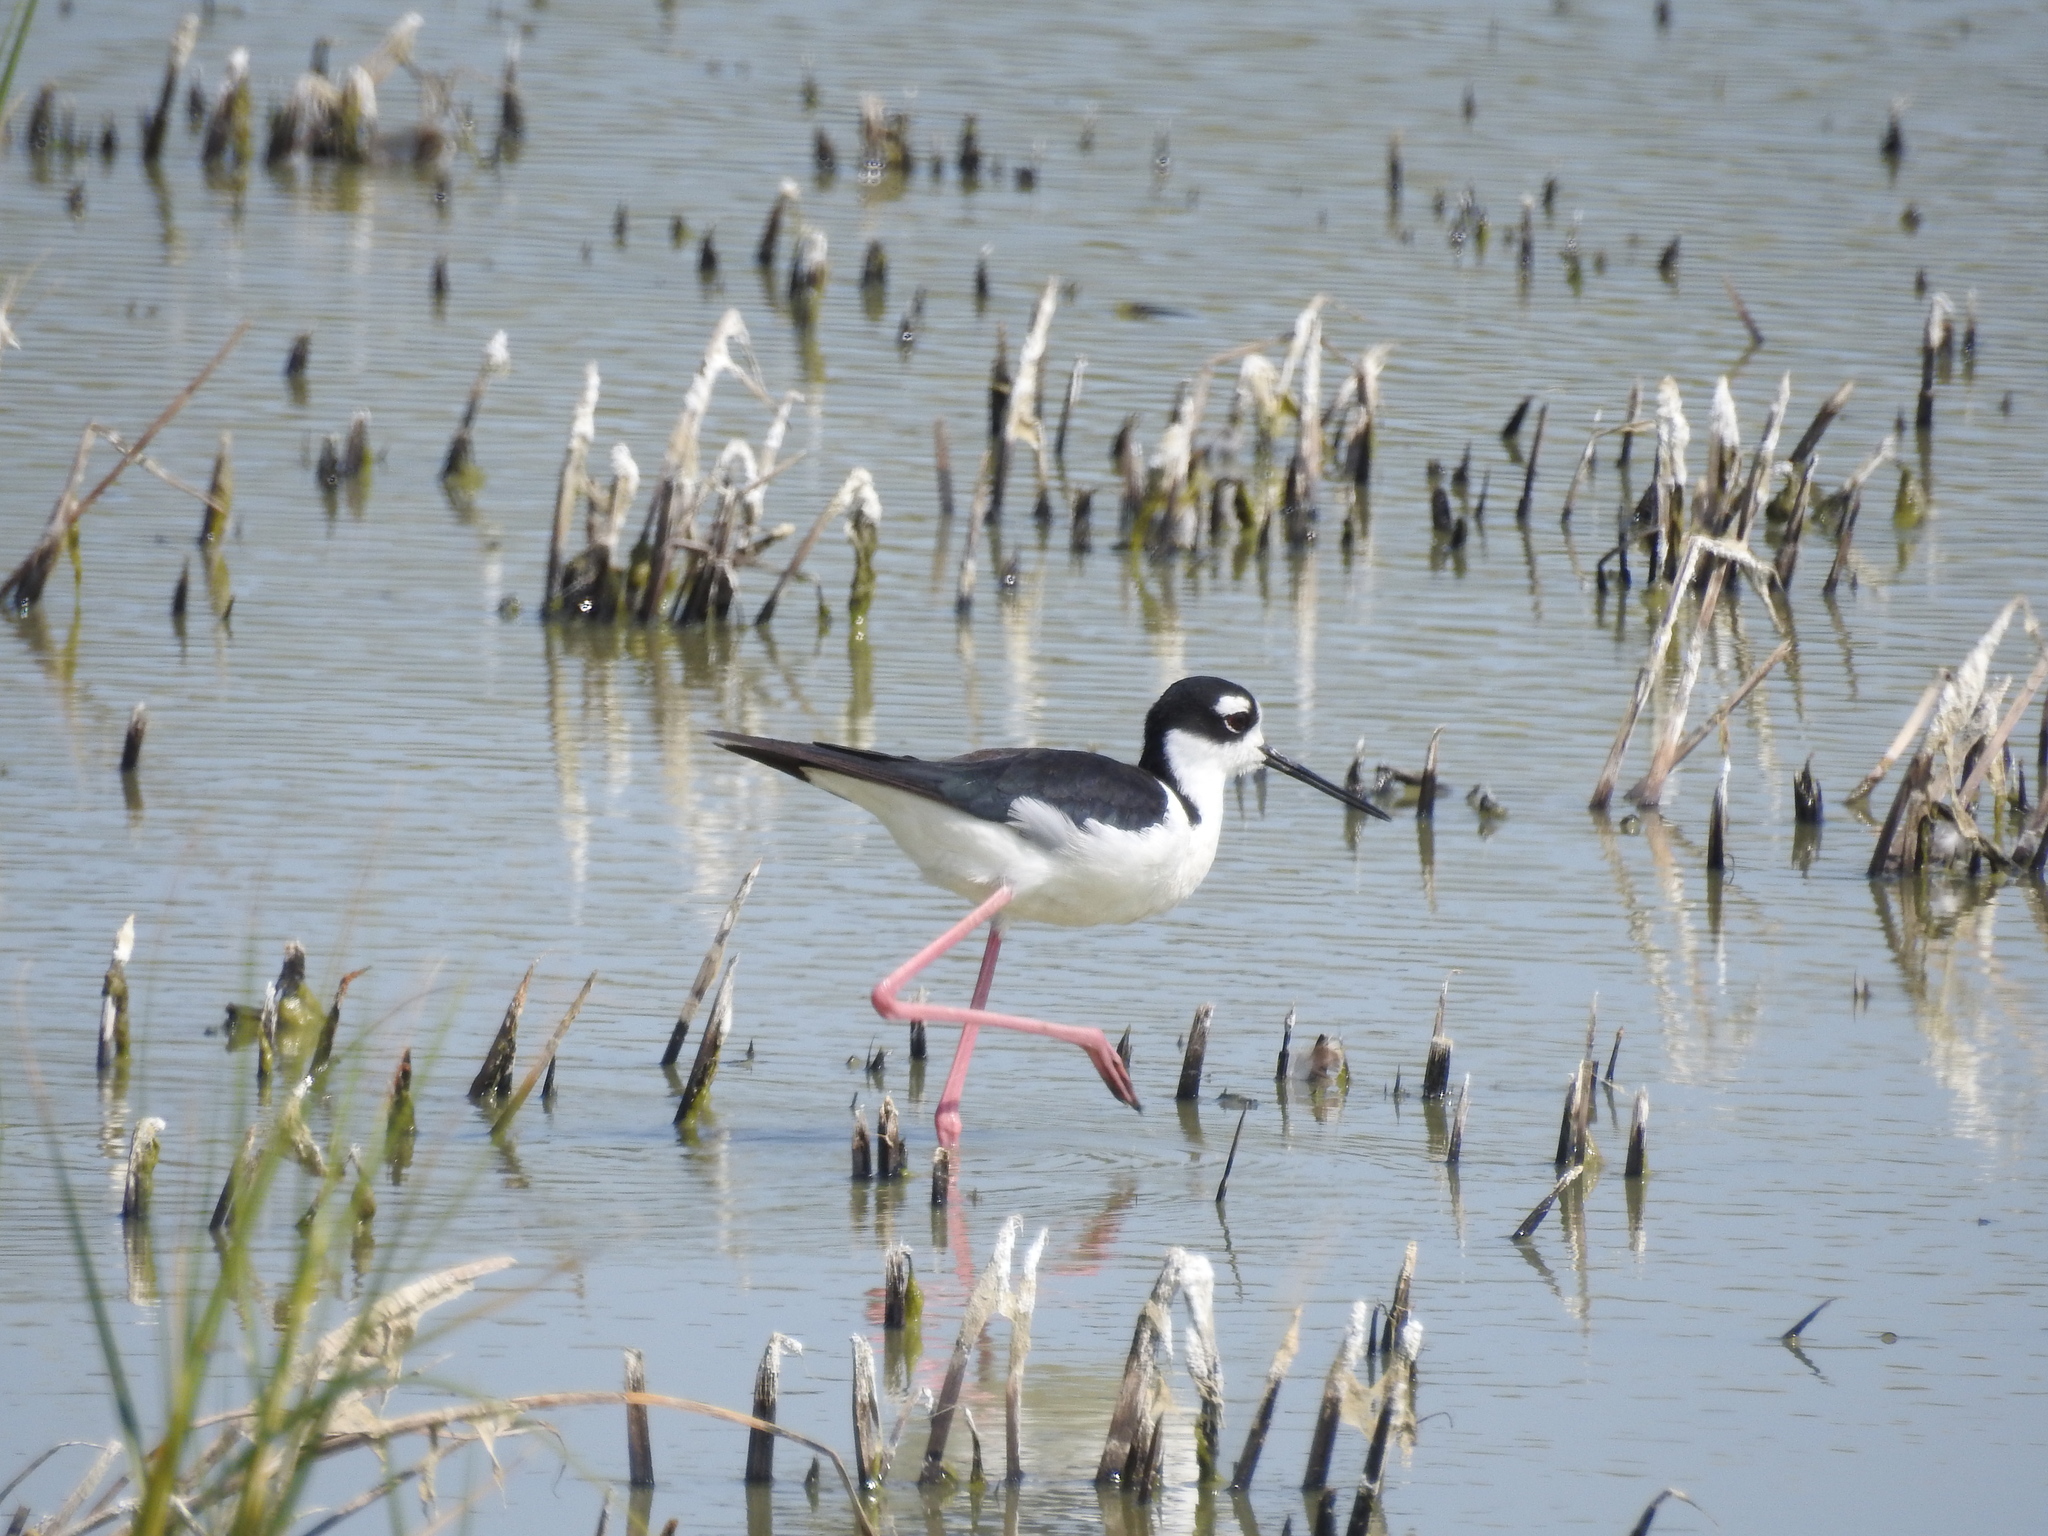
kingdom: Animalia
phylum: Chordata
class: Aves
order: Charadriiformes
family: Recurvirostridae
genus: Himantopus
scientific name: Himantopus mexicanus
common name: Black-necked stilt
